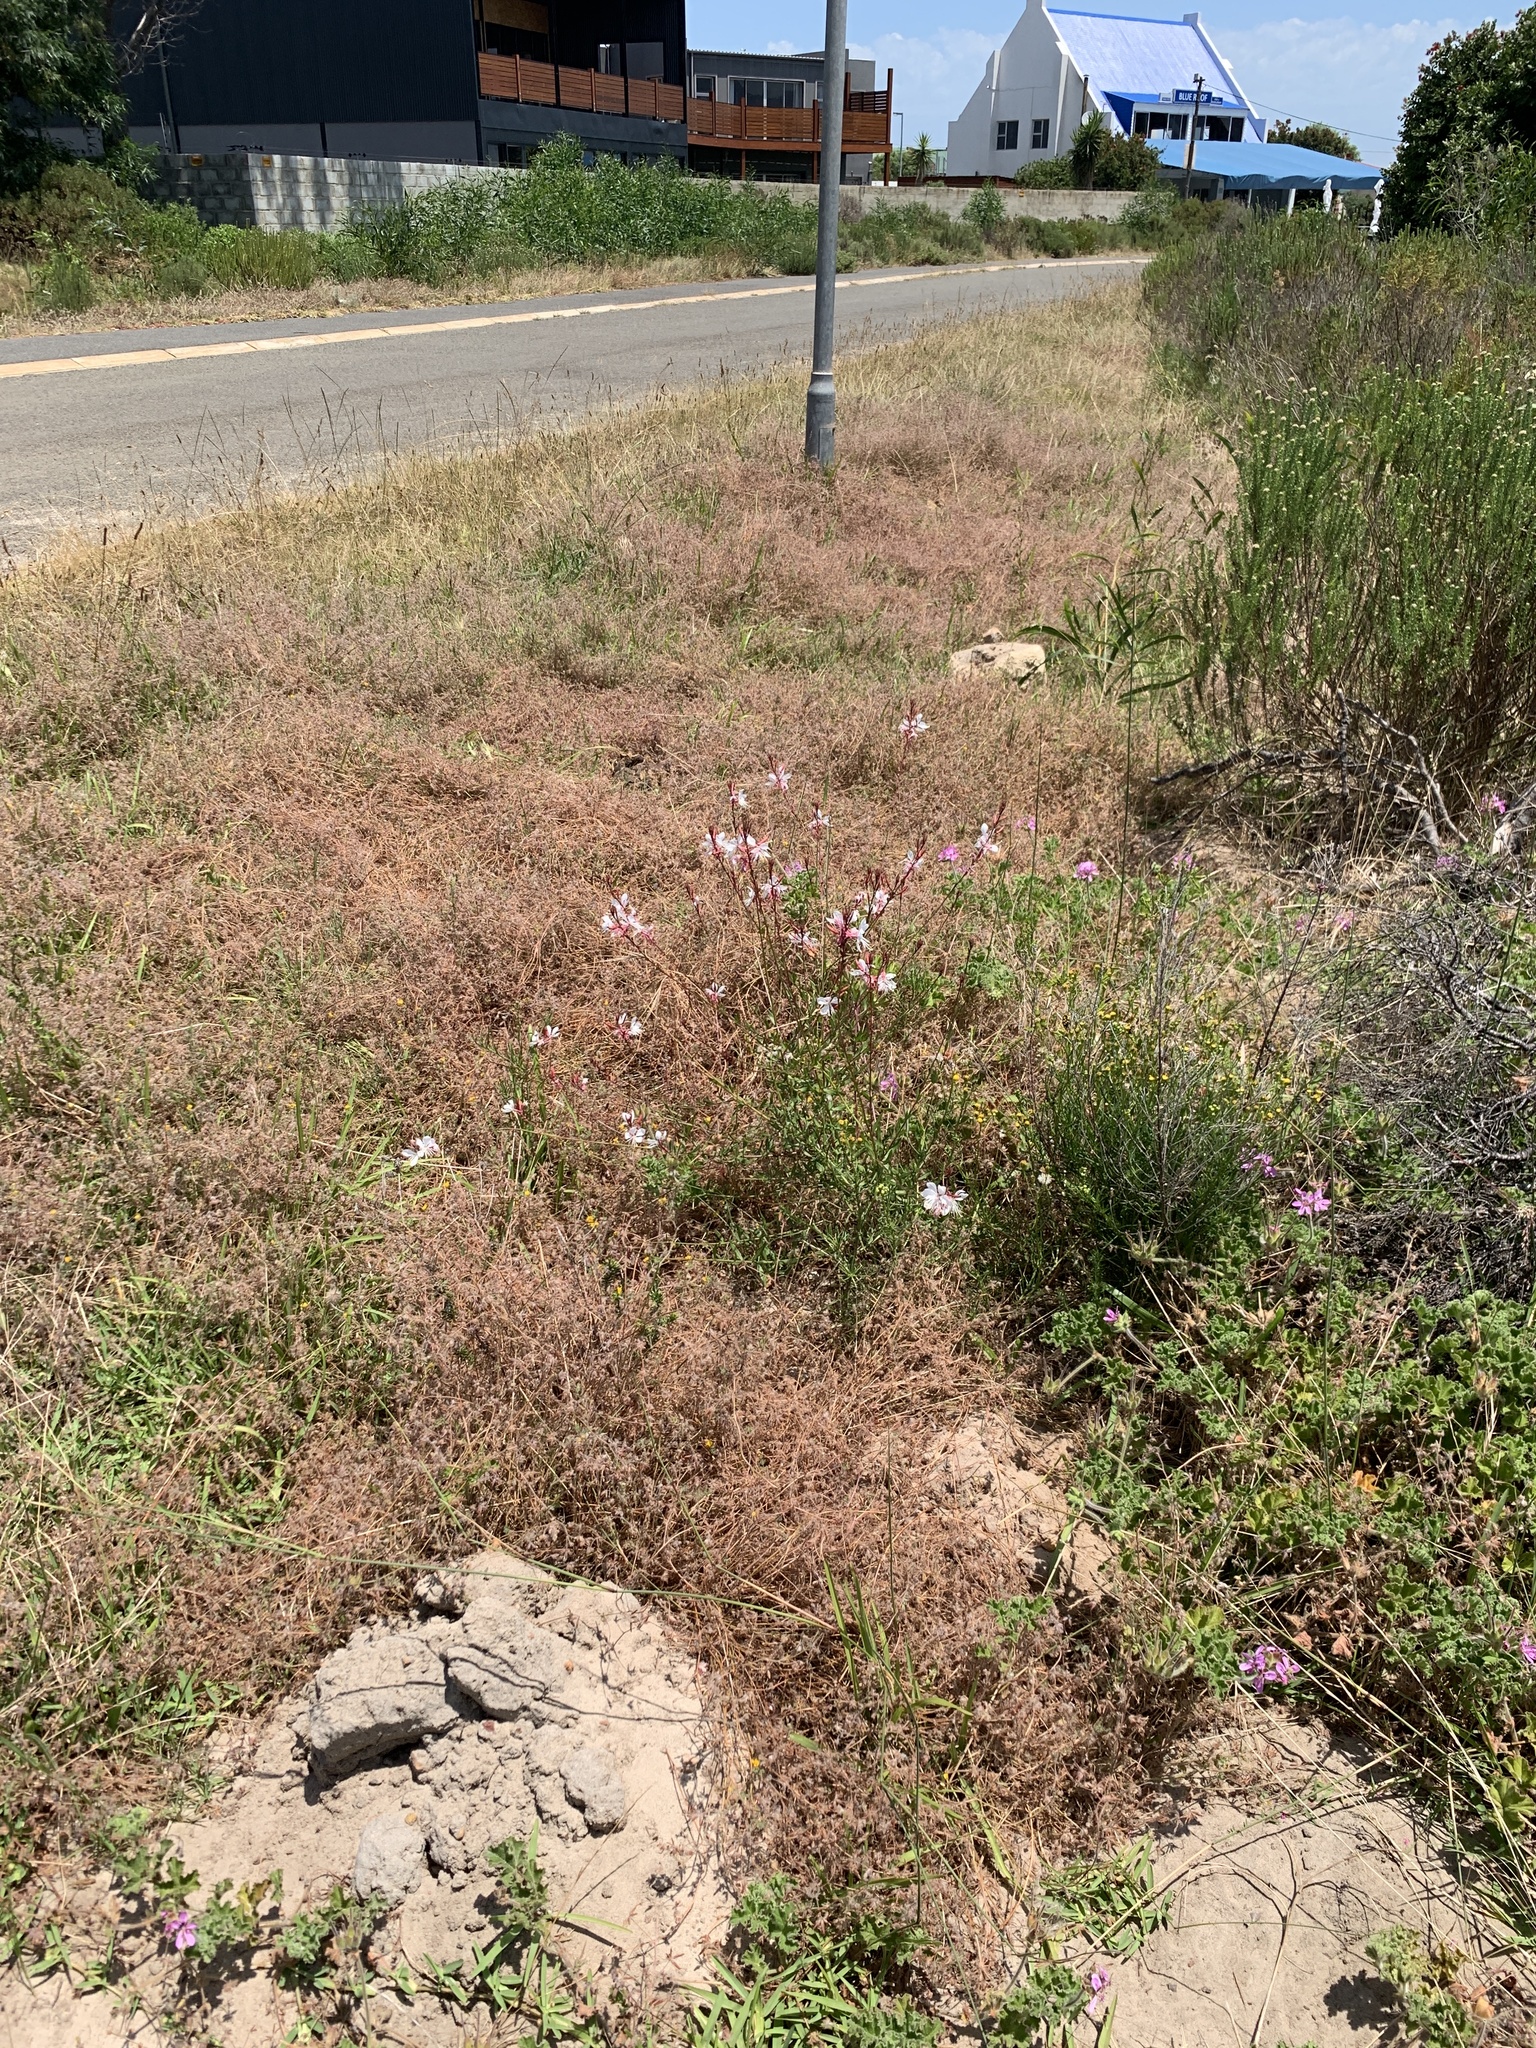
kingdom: Plantae
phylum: Tracheophyta
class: Magnoliopsida
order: Myrtales
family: Onagraceae
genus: Oenothera
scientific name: Oenothera lindheimeri
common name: Lindheimer's beeblossom
